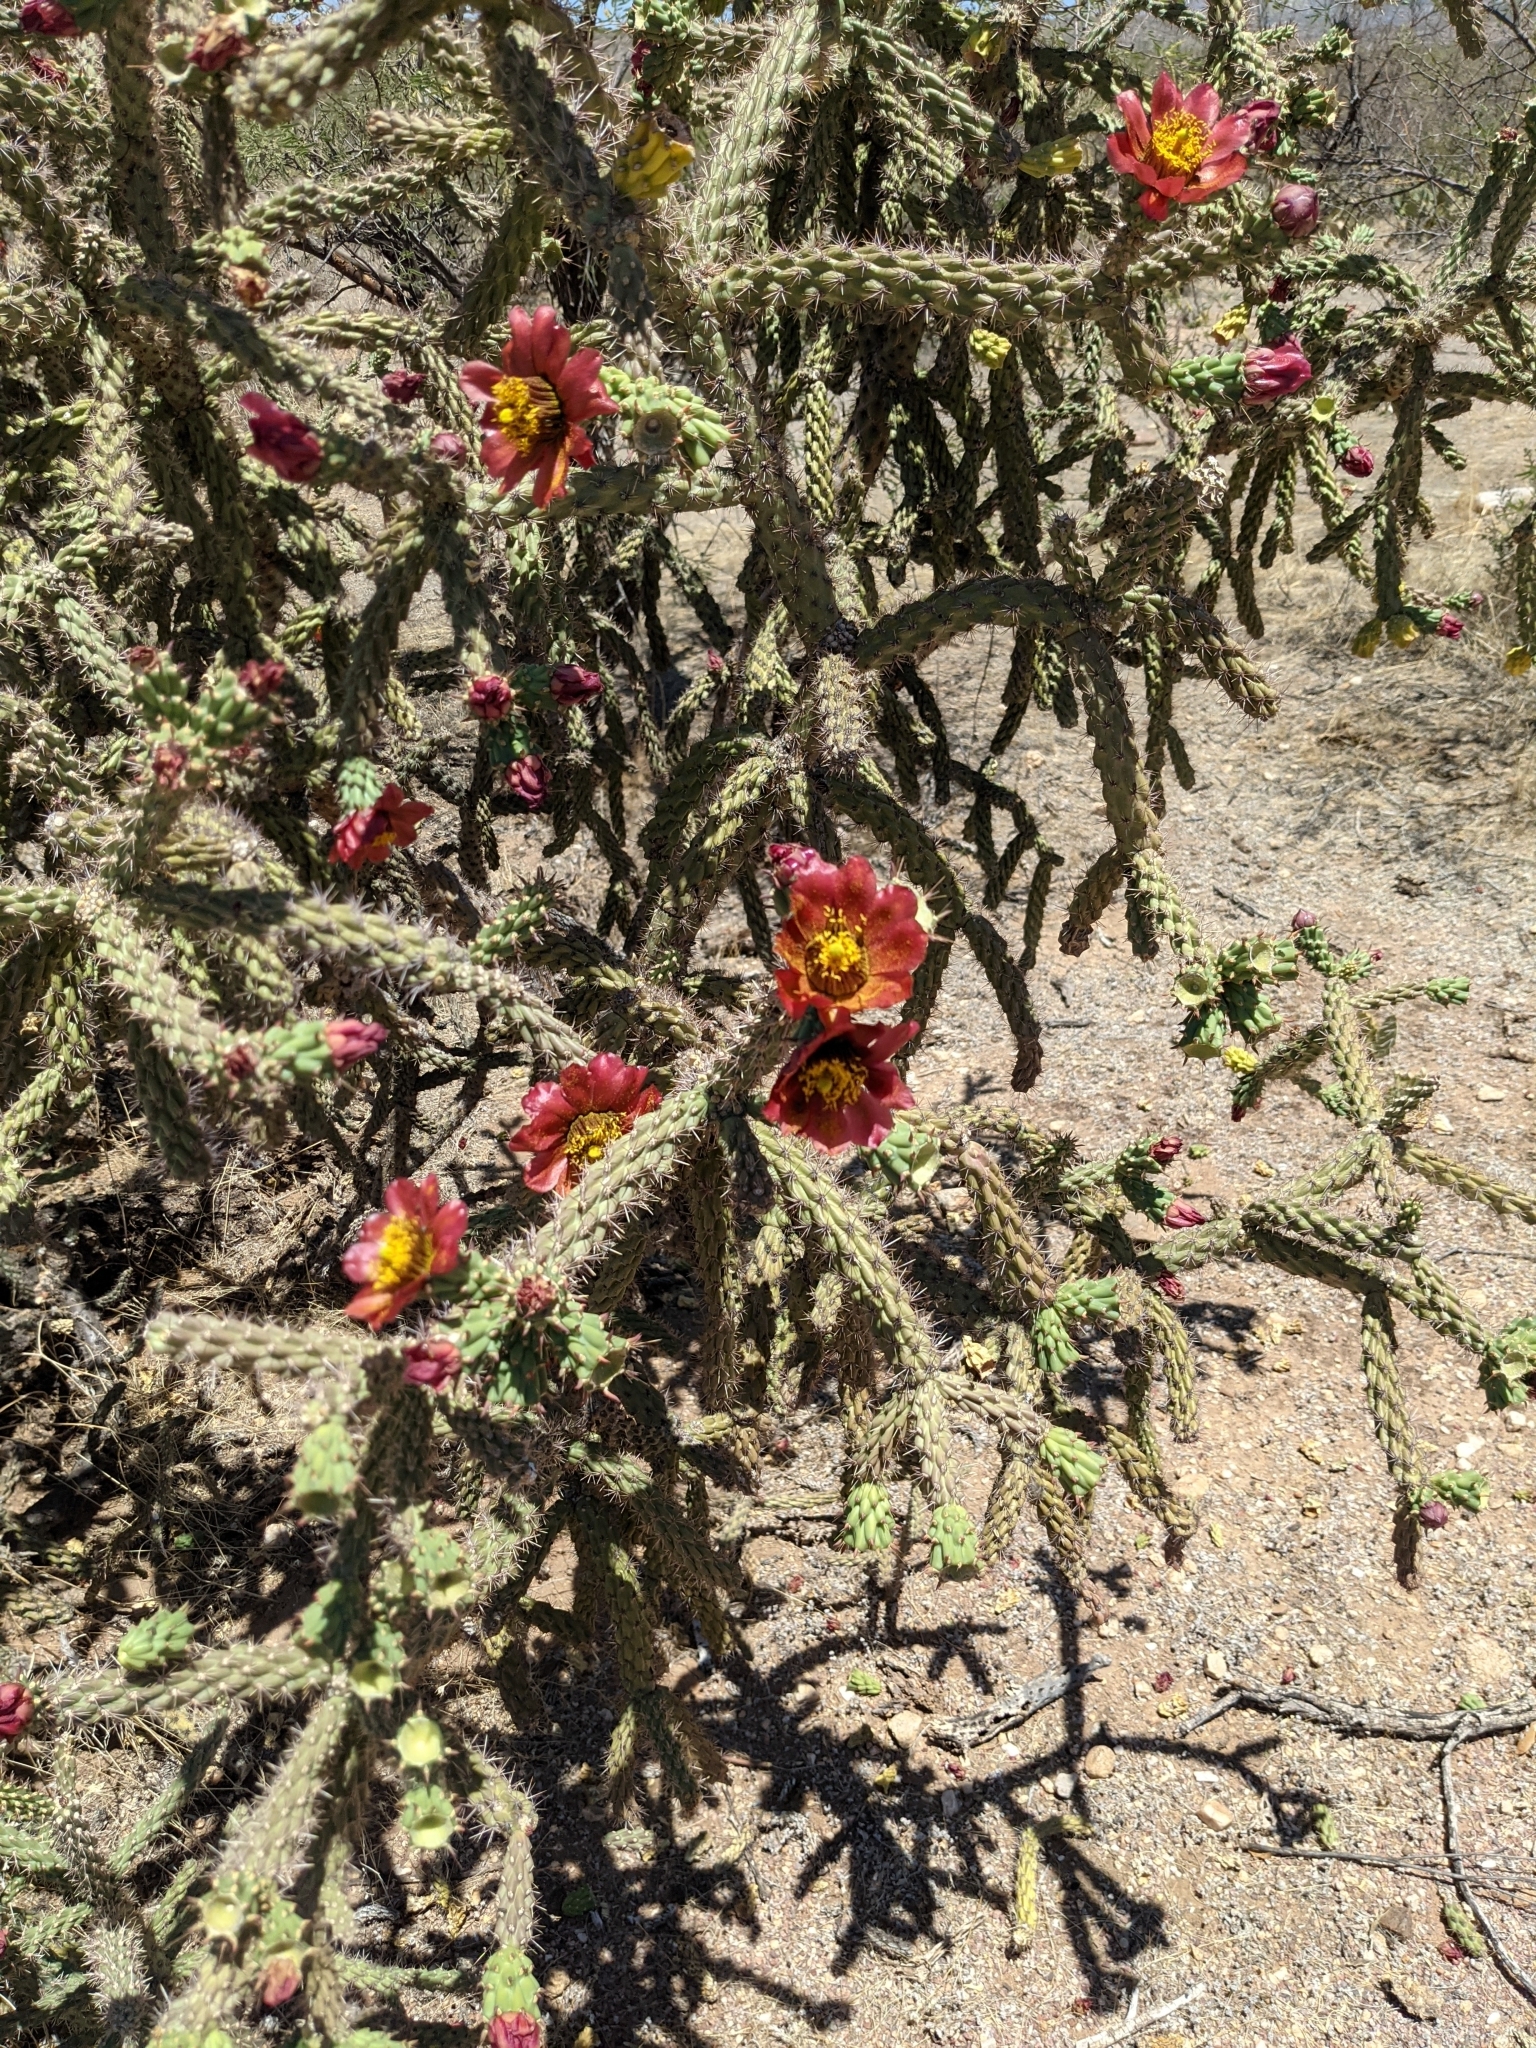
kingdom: Plantae
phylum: Tracheophyta
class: Magnoliopsida
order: Caryophyllales
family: Cactaceae
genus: Cylindropuntia
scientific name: Cylindropuntia imbricata
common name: Candelabrum cactus
